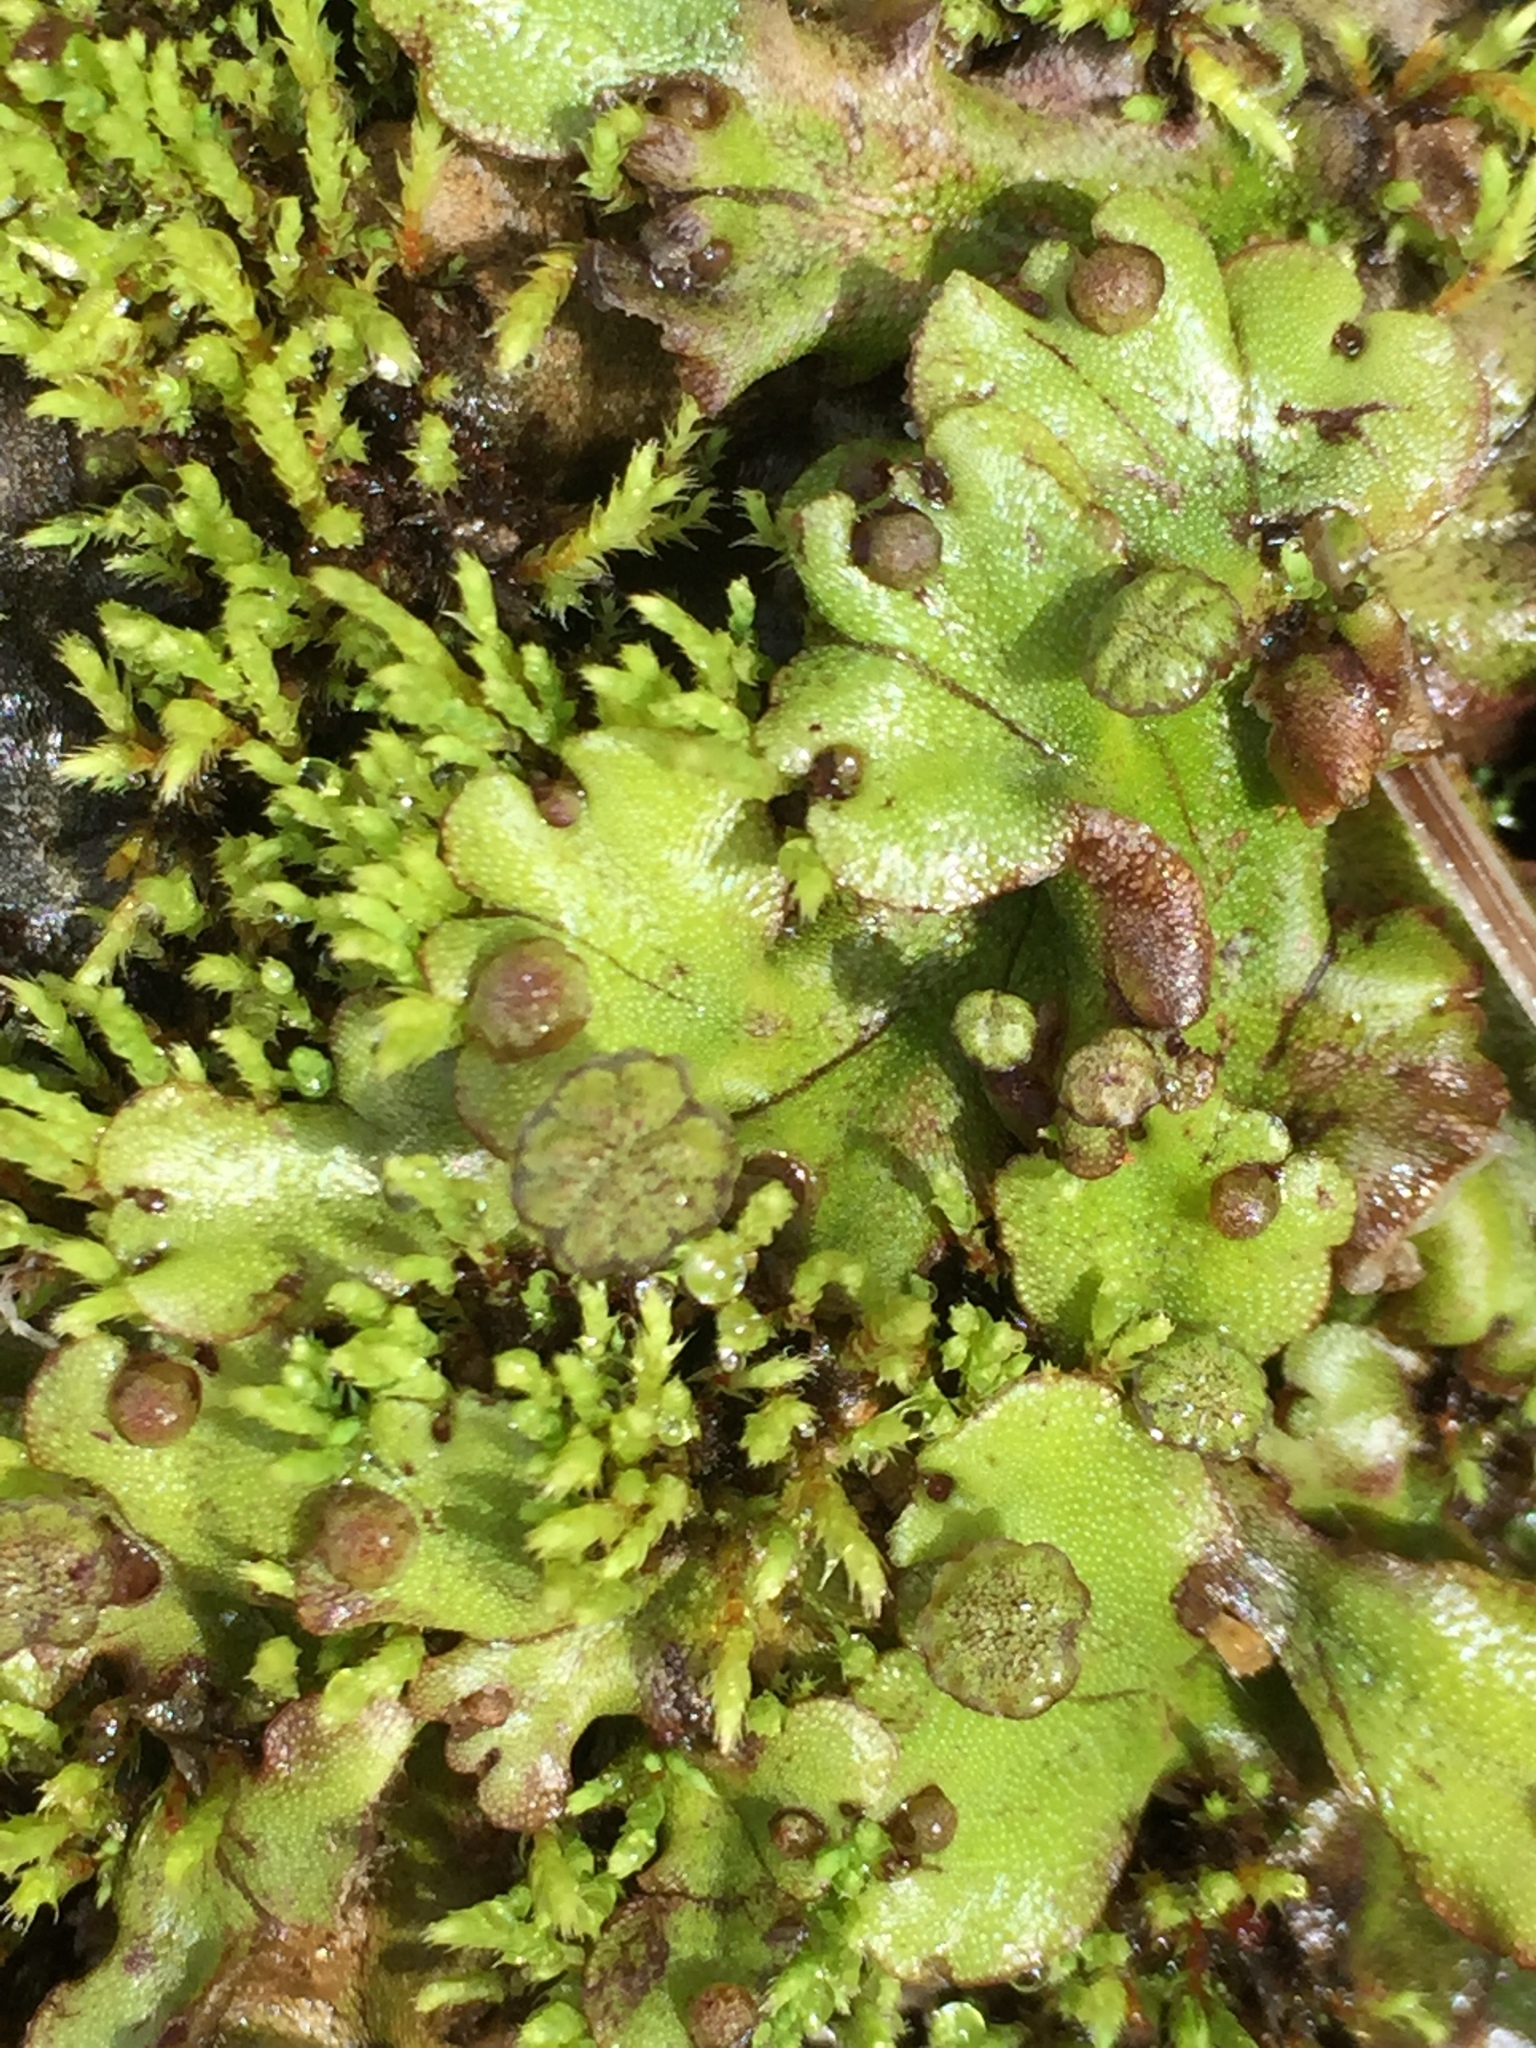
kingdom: Plantae
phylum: Marchantiophyta
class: Marchantiopsida
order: Marchantiales
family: Marchantiaceae
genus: Marchantia
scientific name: Marchantia polymorpha
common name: Common liverwort
